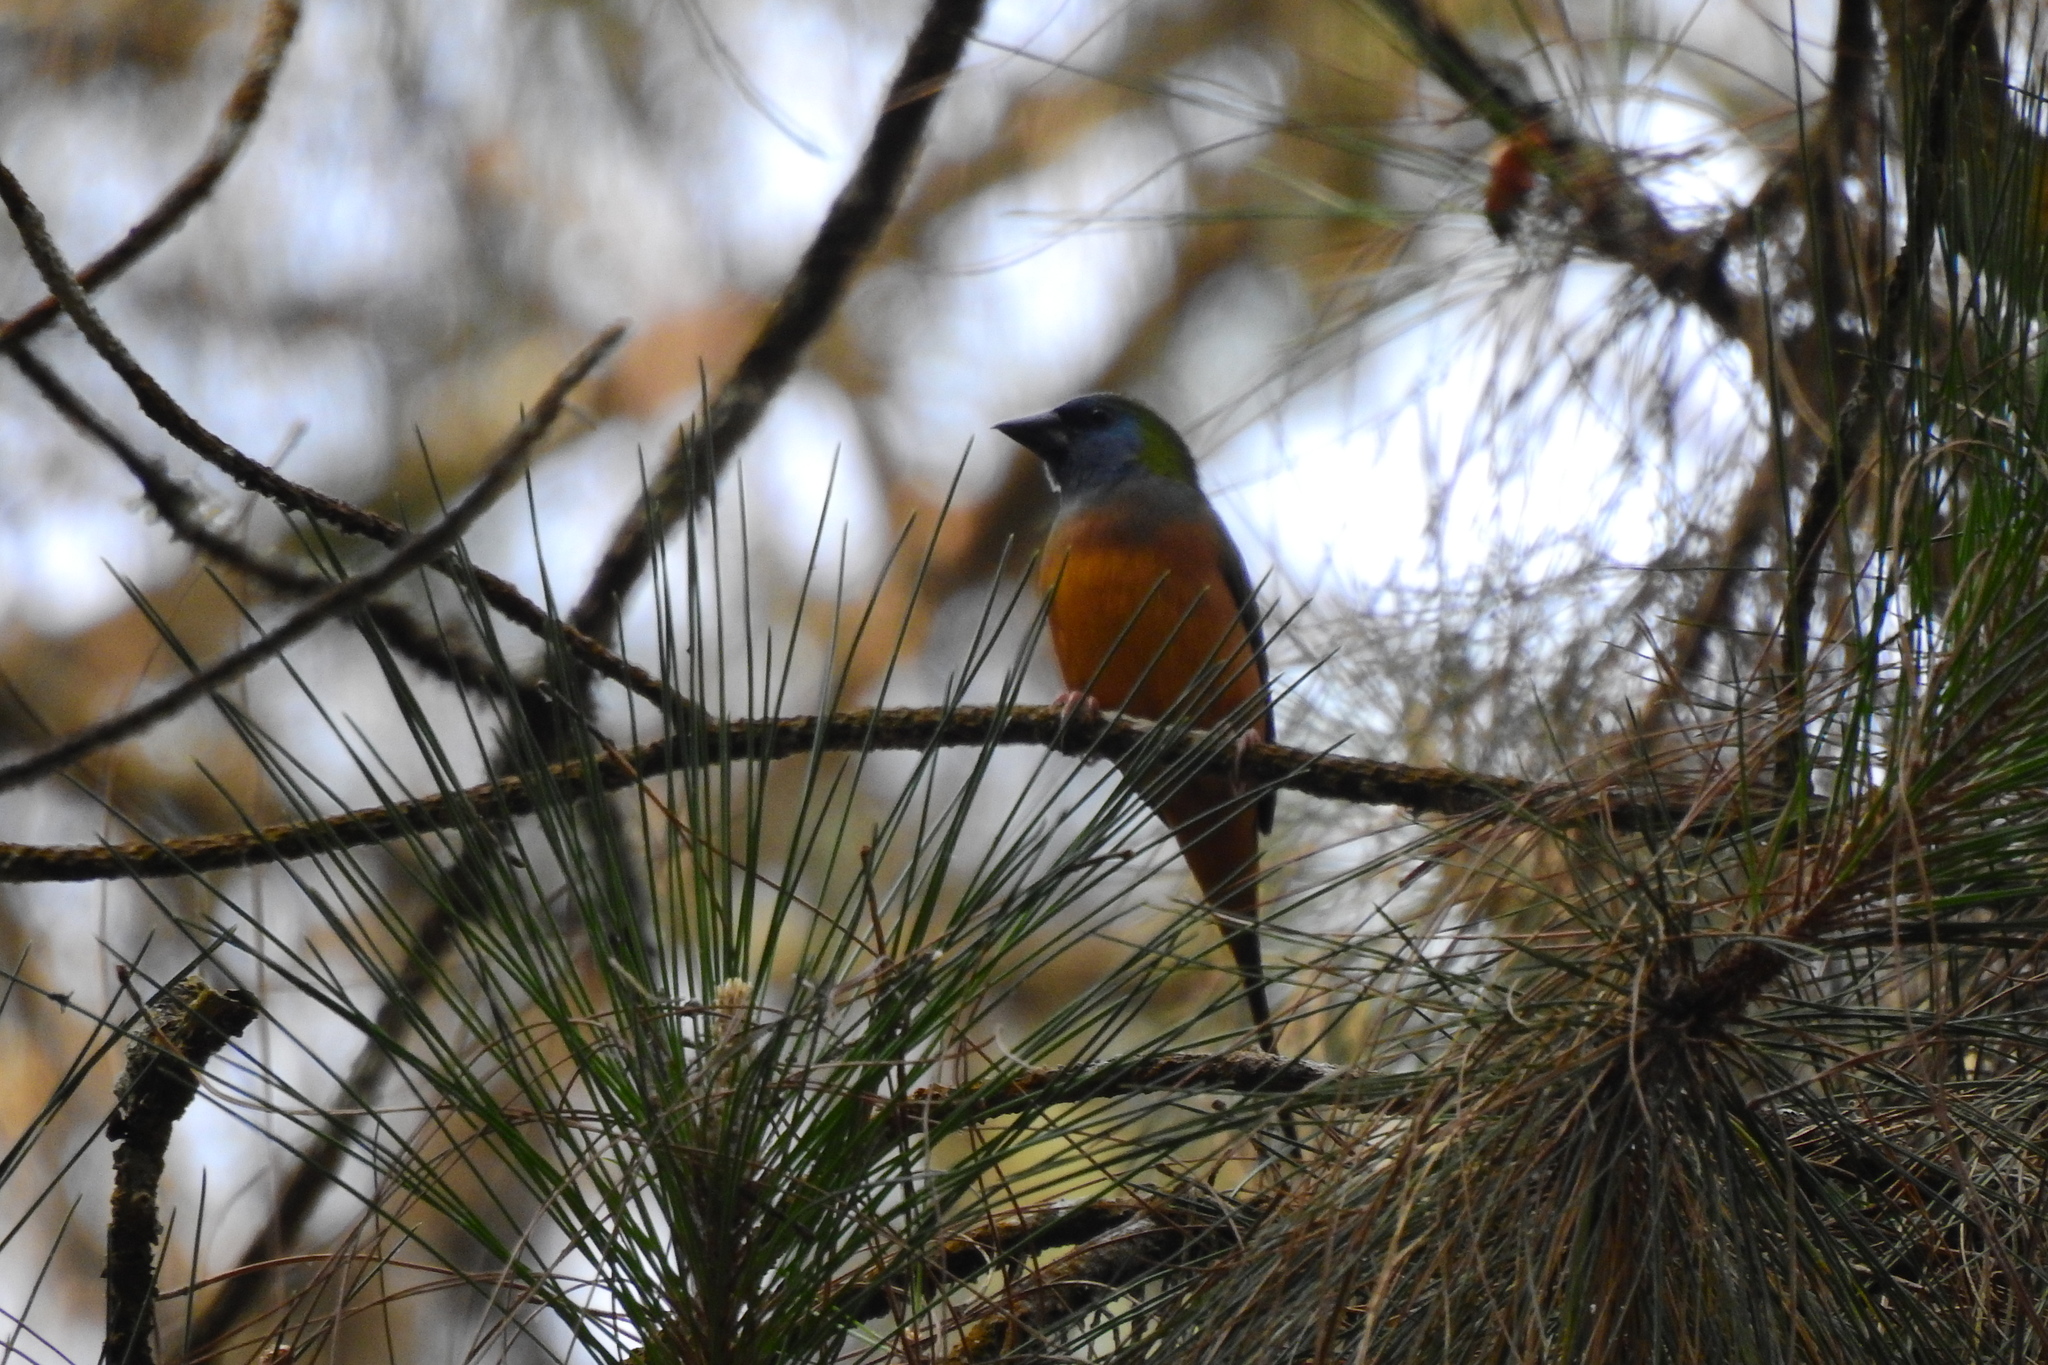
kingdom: Animalia
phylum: Chordata
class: Aves
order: Passeriformes
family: Estrildidae
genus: Erythrura
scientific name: Erythrura prasina
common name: Pin-tailed parrotfinch
